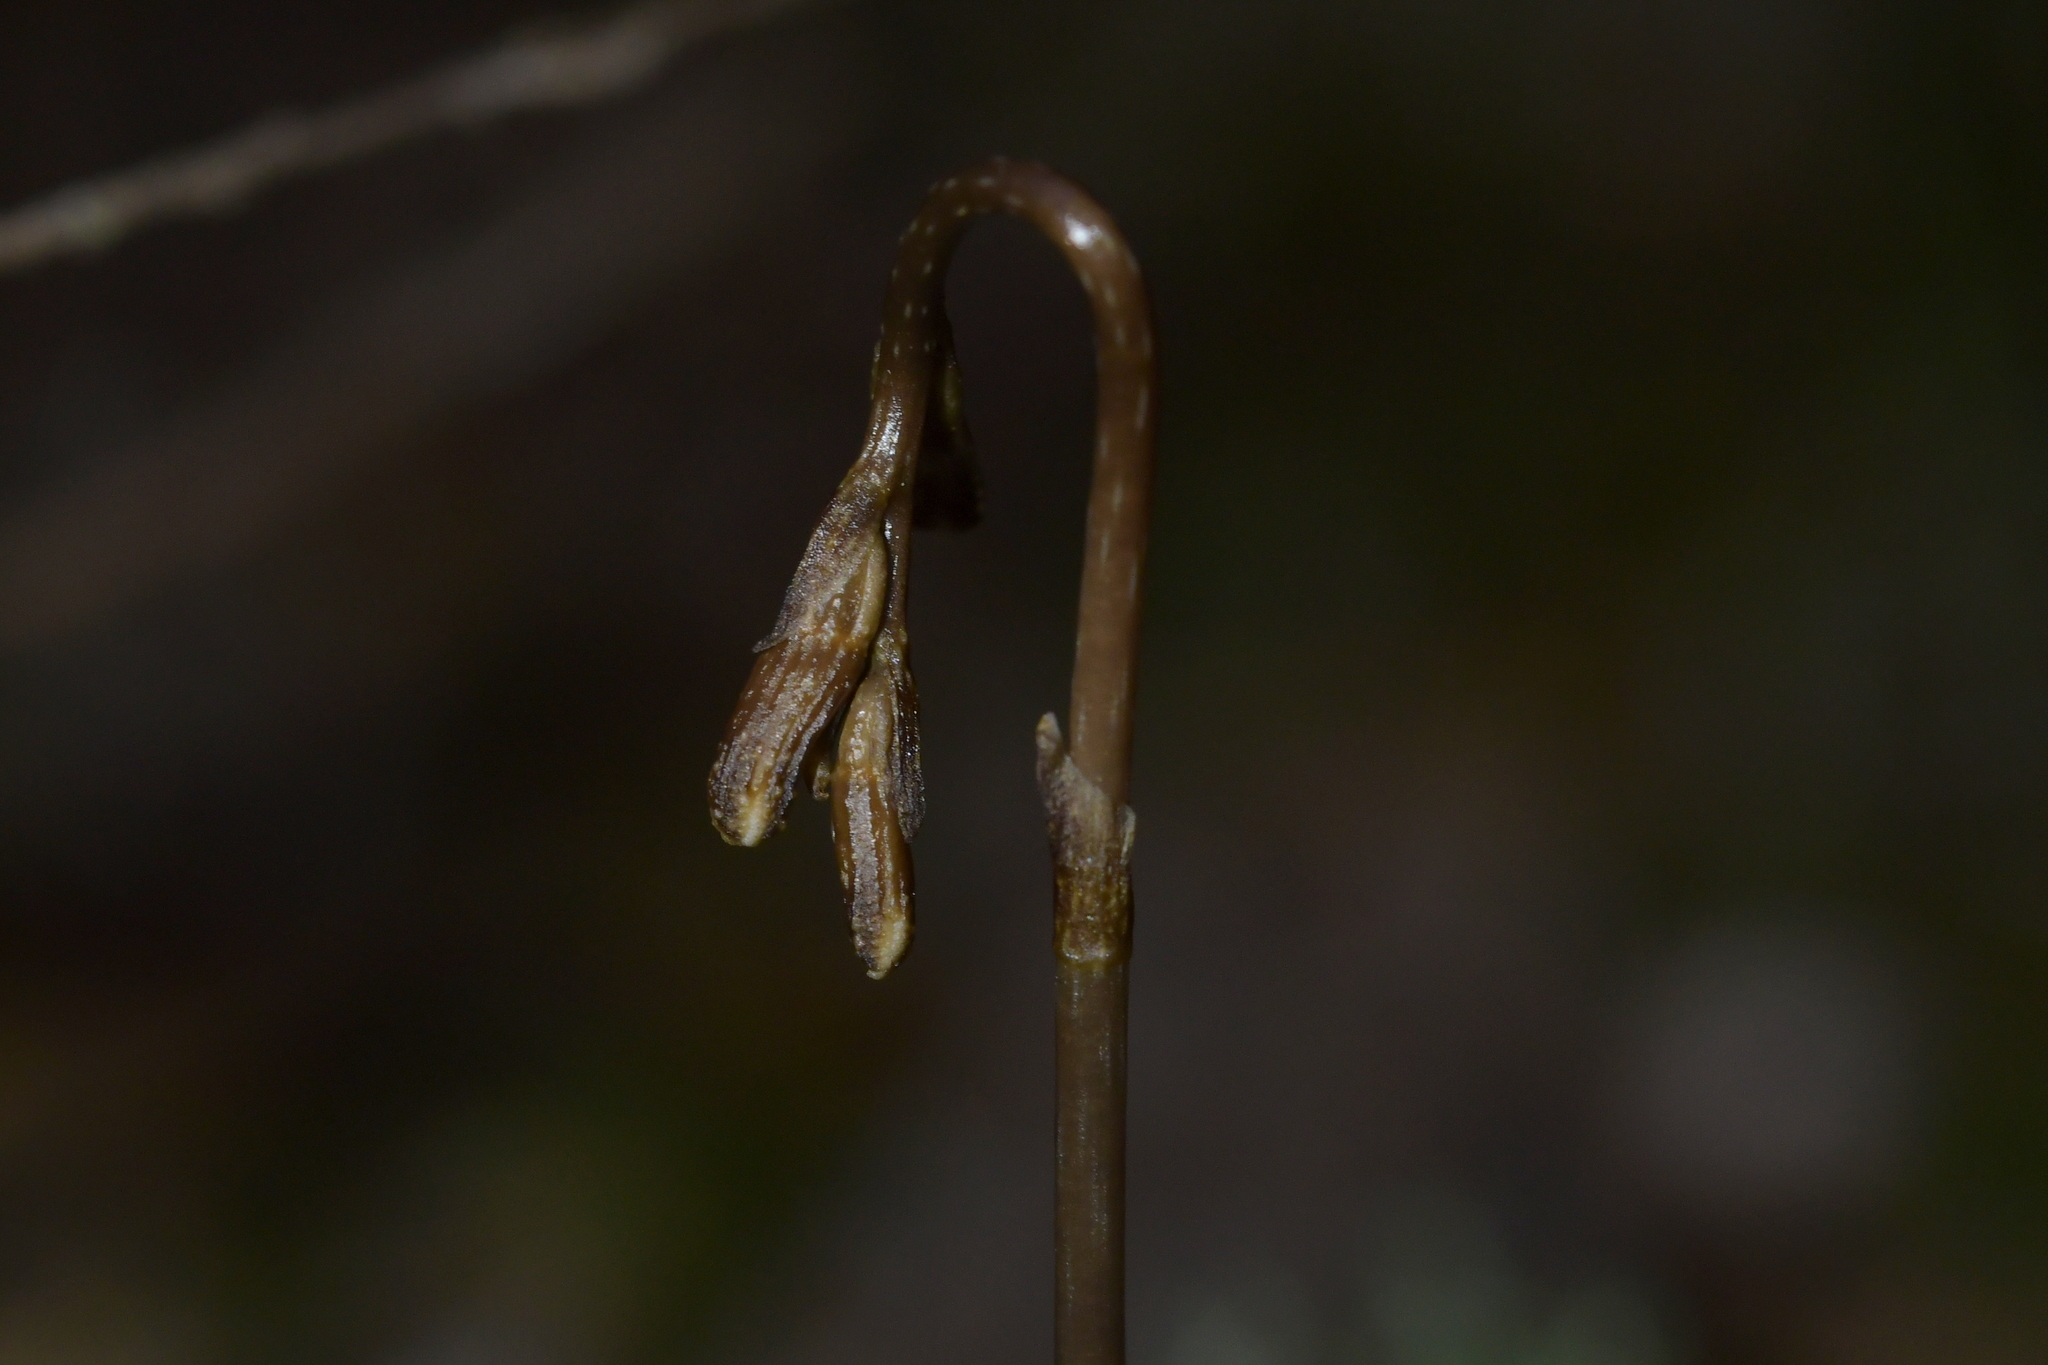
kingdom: Plantae
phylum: Tracheophyta
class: Liliopsida
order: Asparagales
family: Orchidaceae
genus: Gastrodia
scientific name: Gastrodia minor
